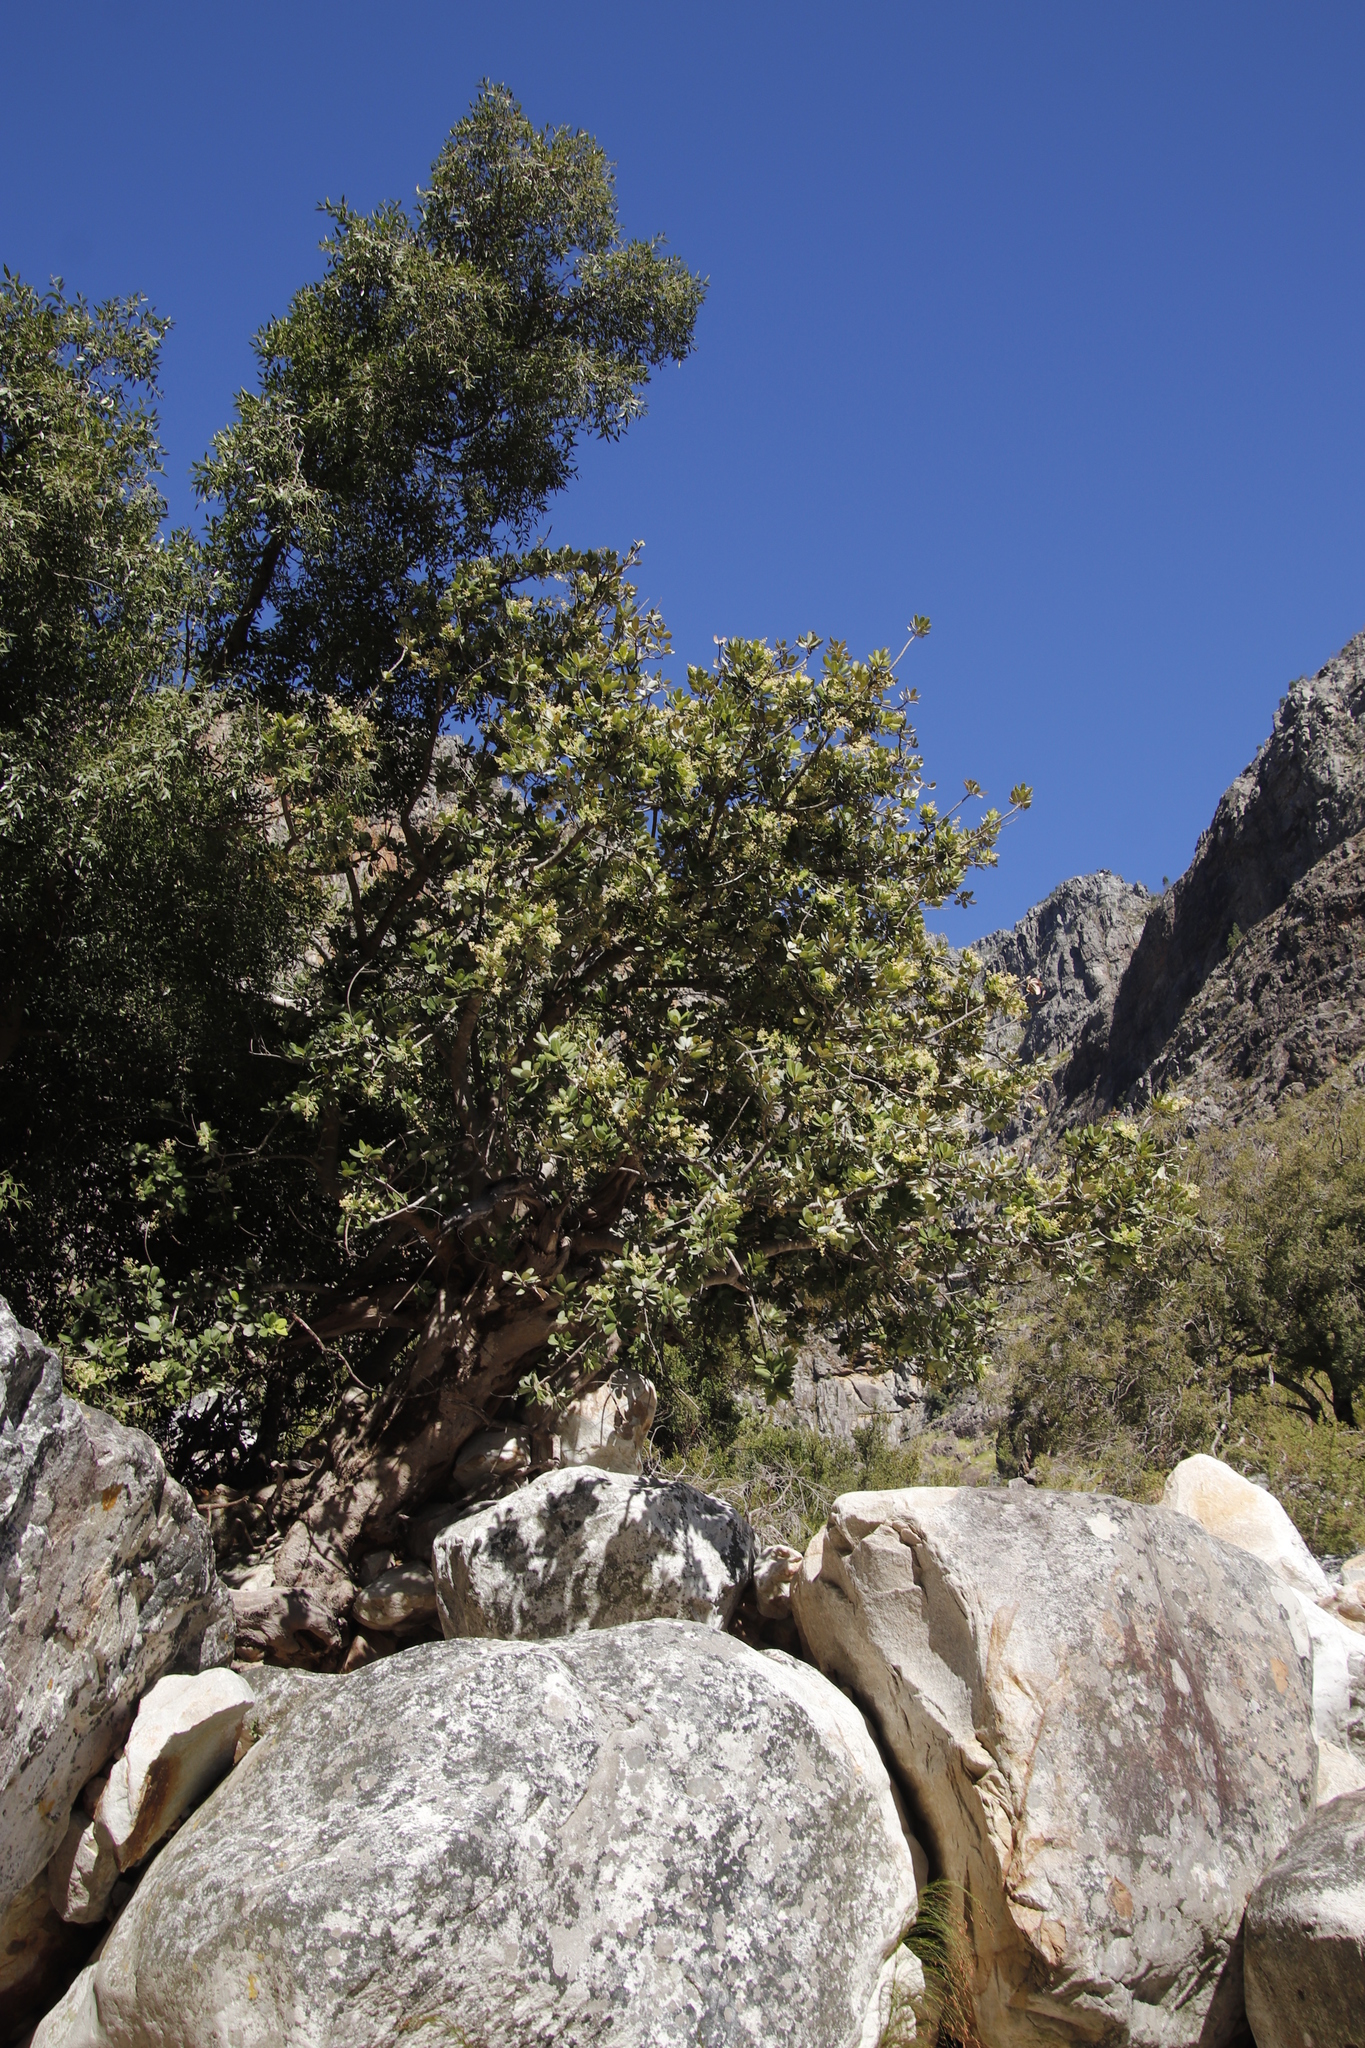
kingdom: Plantae
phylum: Tracheophyta
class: Magnoliopsida
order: Sapindales
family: Anacardiaceae
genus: Heeria
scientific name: Heeria argentea
